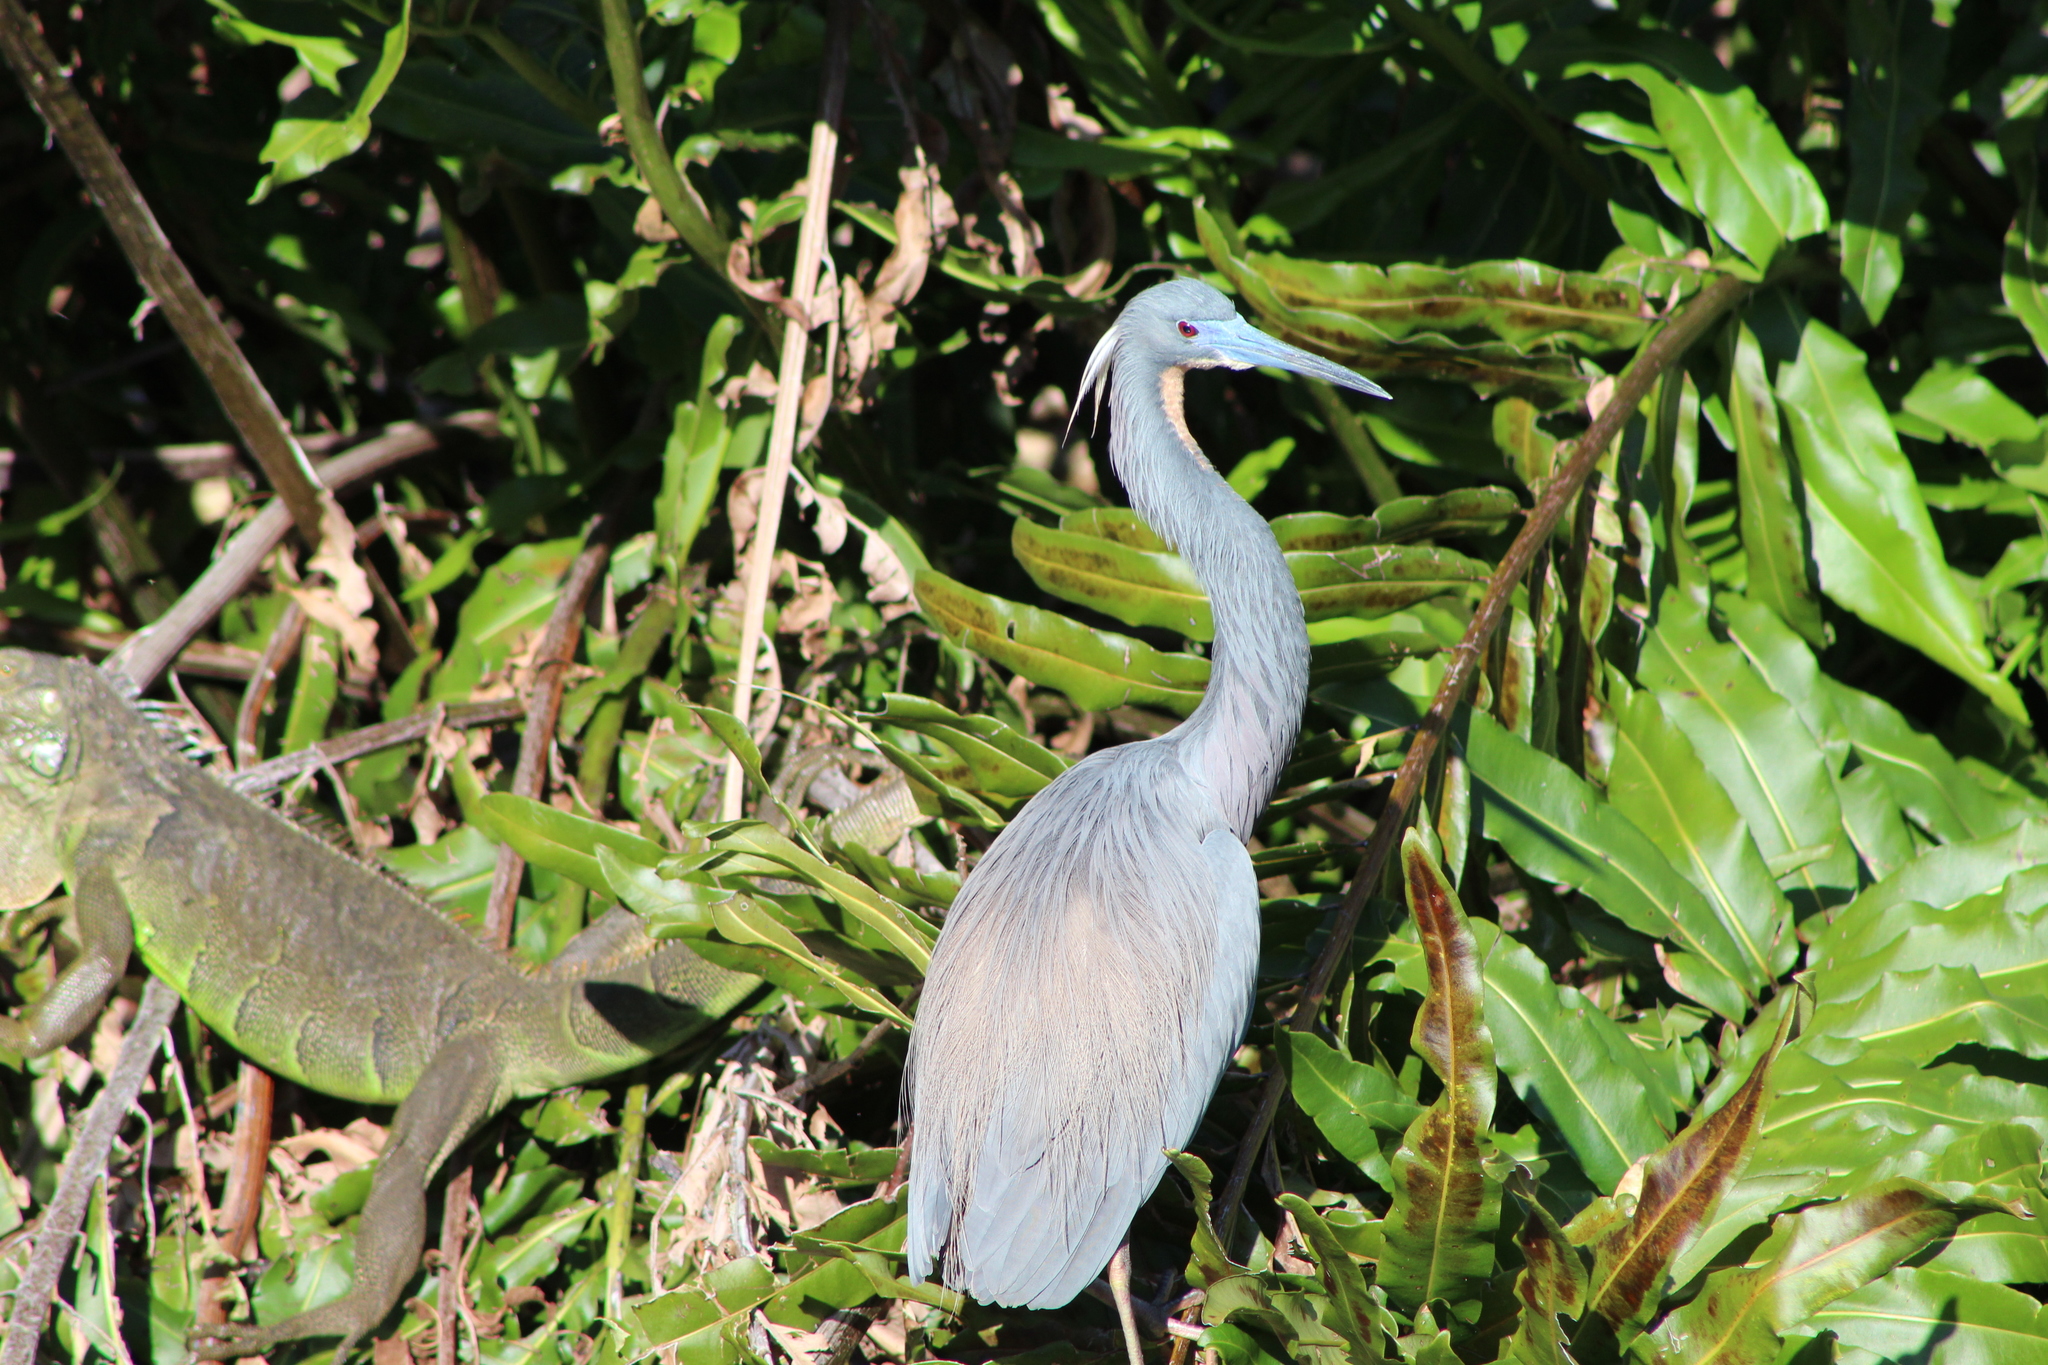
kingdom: Animalia
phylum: Chordata
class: Aves
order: Pelecaniformes
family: Ardeidae
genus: Egretta
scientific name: Egretta tricolor
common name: Tricolored heron
